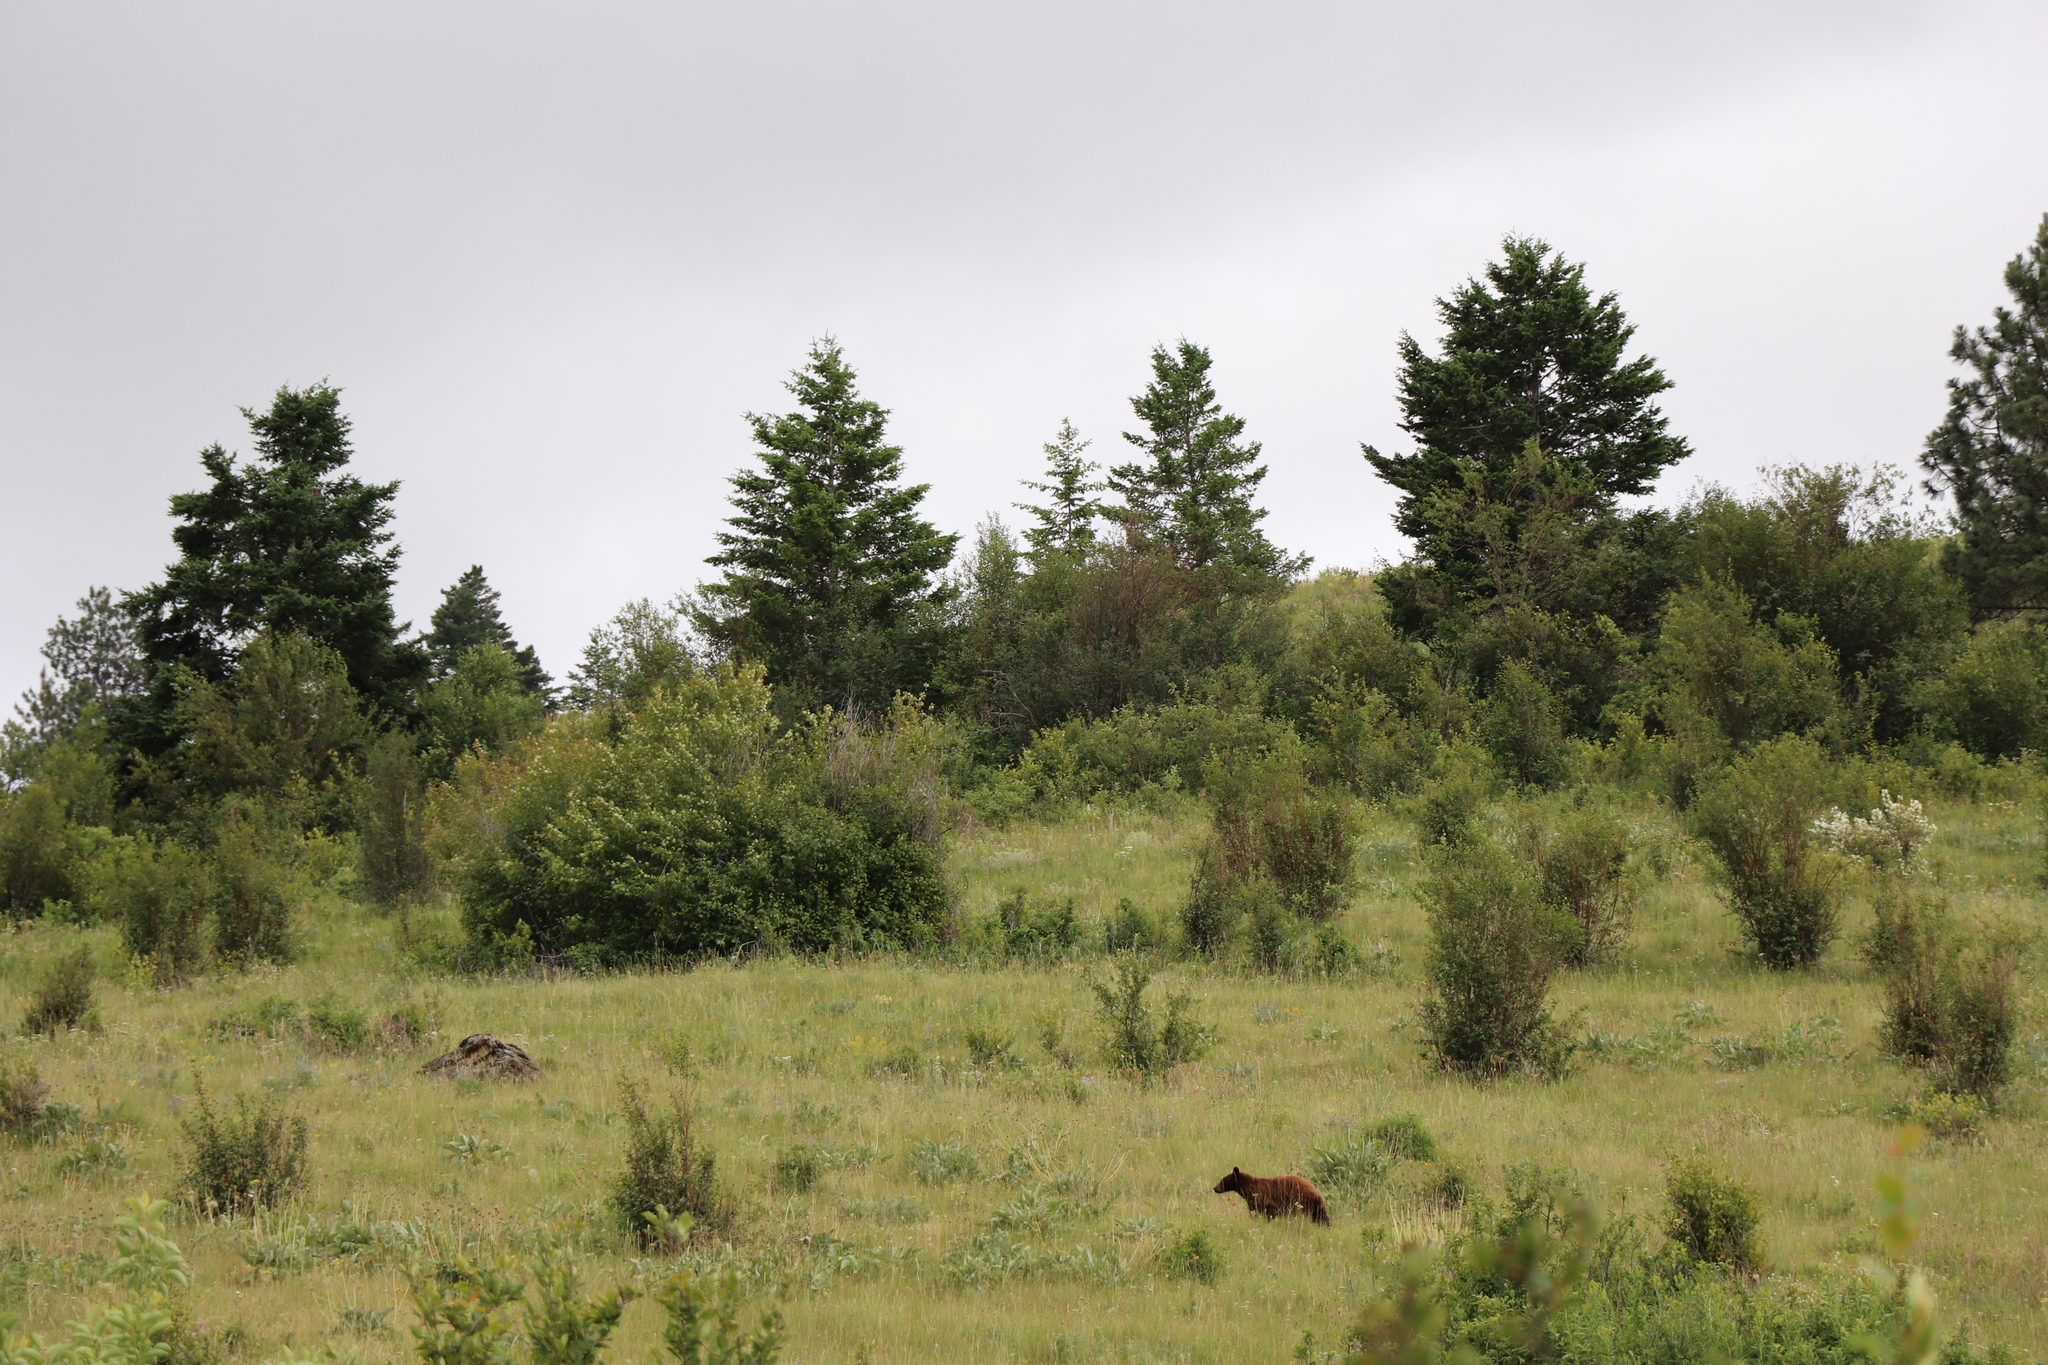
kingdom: Animalia
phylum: Chordata
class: Mammalia
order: Carnivora
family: Ursidae
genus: Ursus
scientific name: Ursus americanus
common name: American black bear
